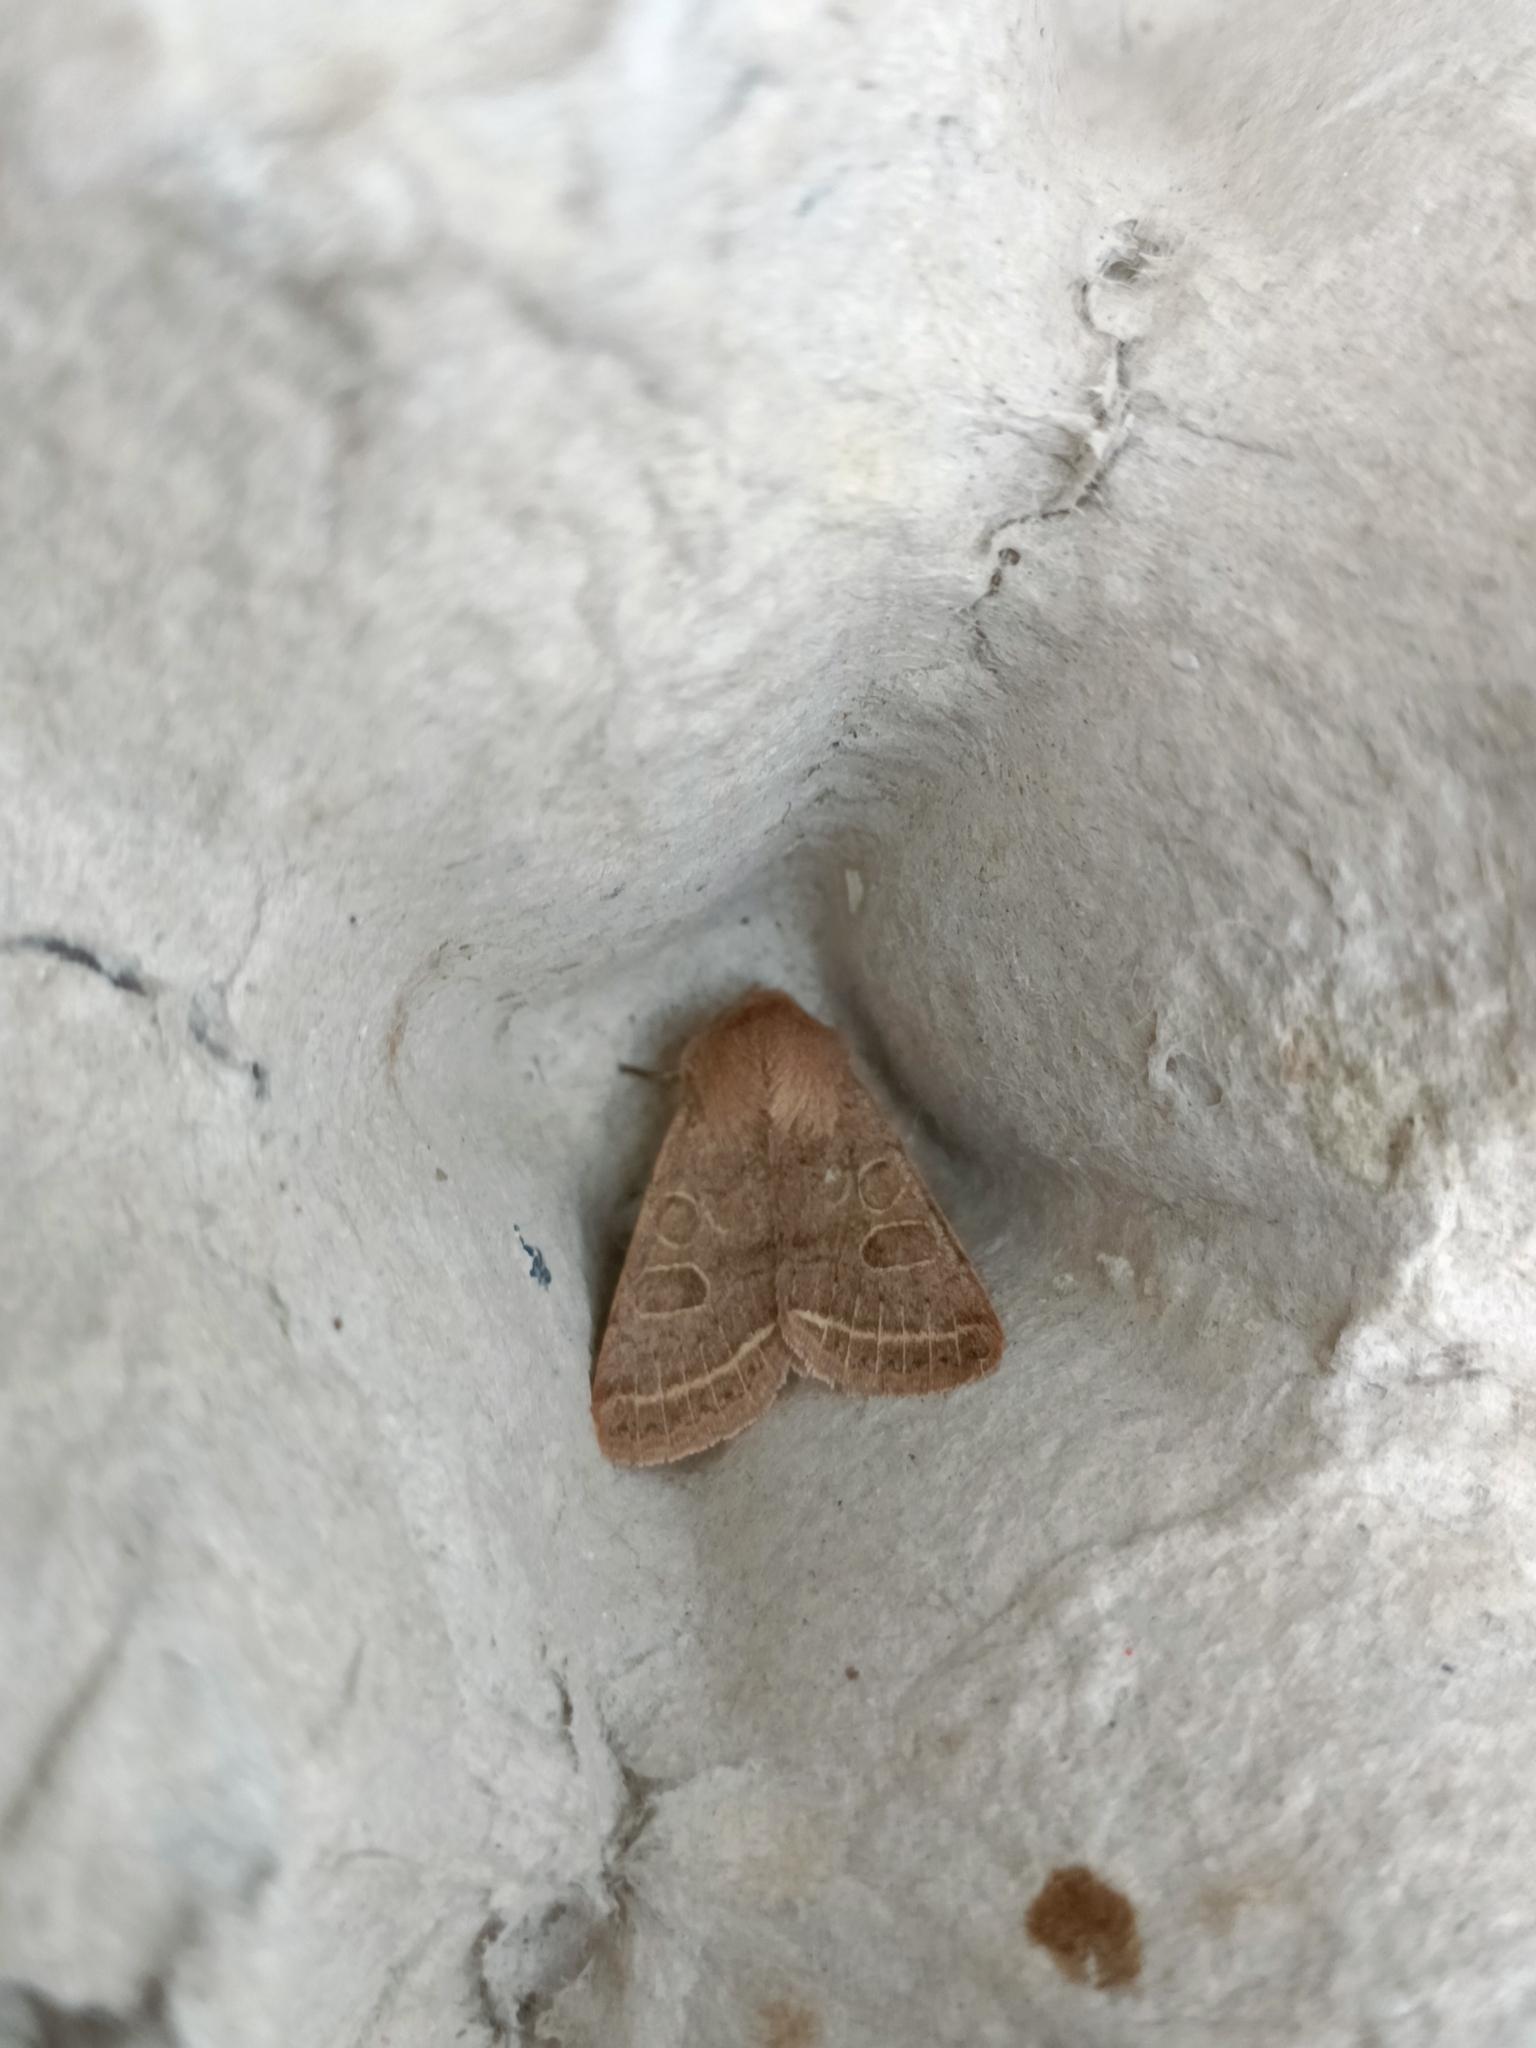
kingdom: Animalia
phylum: Arthropoda
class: Insecta
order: Lepidoptera
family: Noctuidae
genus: Orthosia
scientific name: Orthosia cerasi
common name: Common quaker
